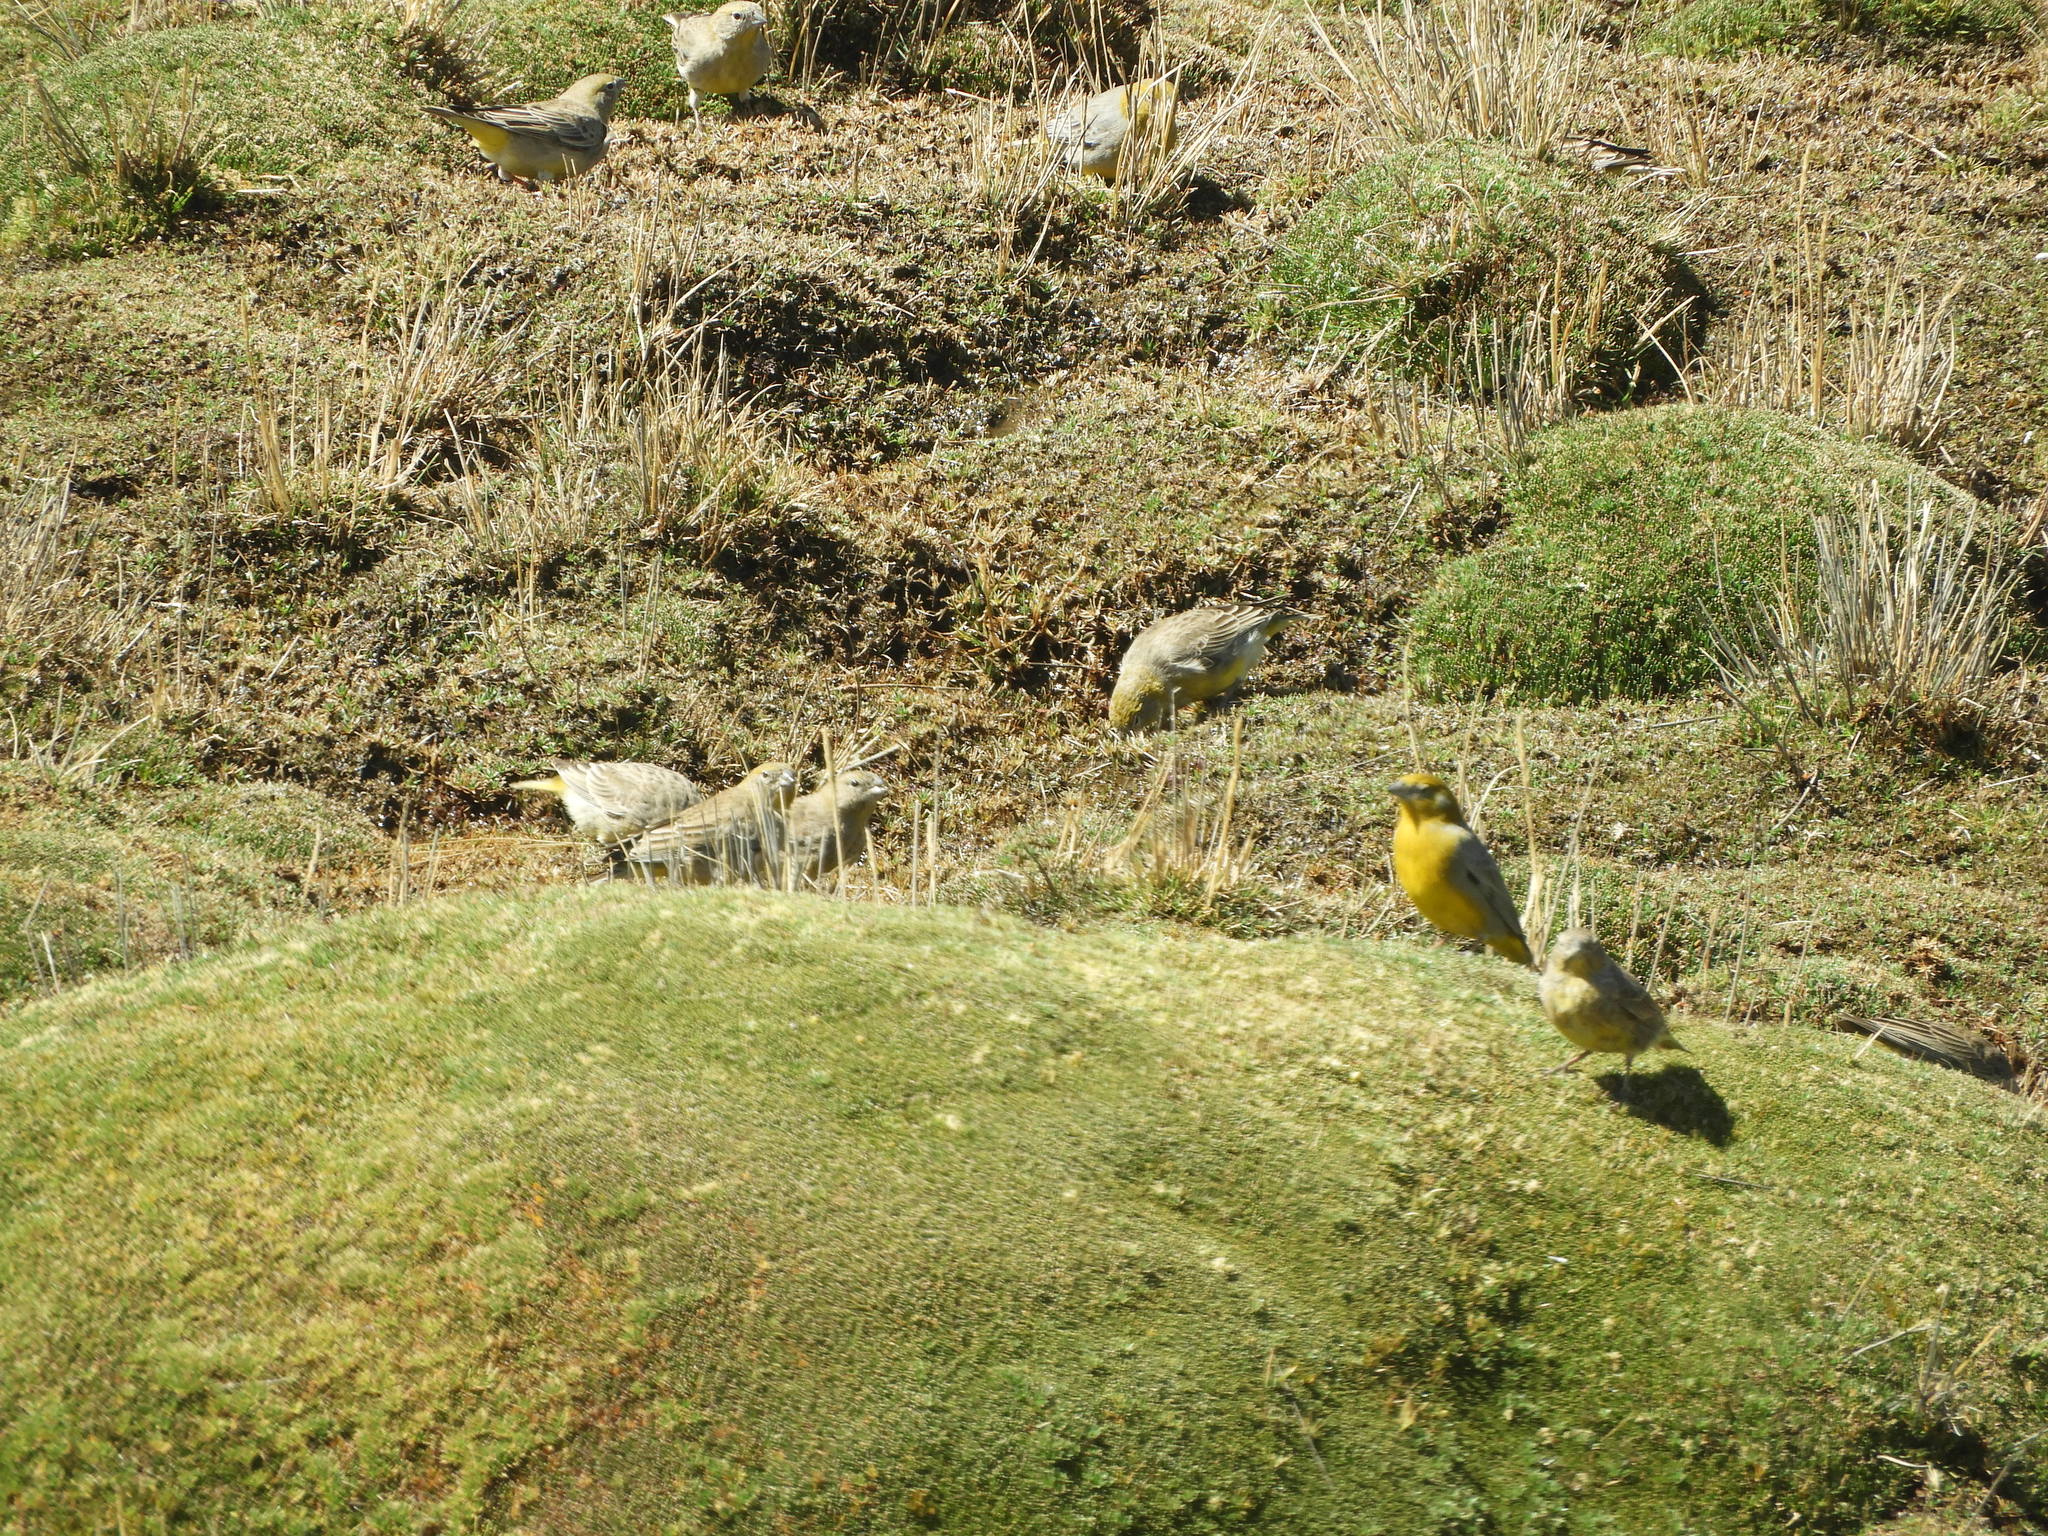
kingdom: Animalia
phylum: Chordata
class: Aves
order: Passeriformes
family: Thraupidae
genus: Sicalis
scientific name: Sicalis uropigyalis
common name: Bright-rumped yellow finch
